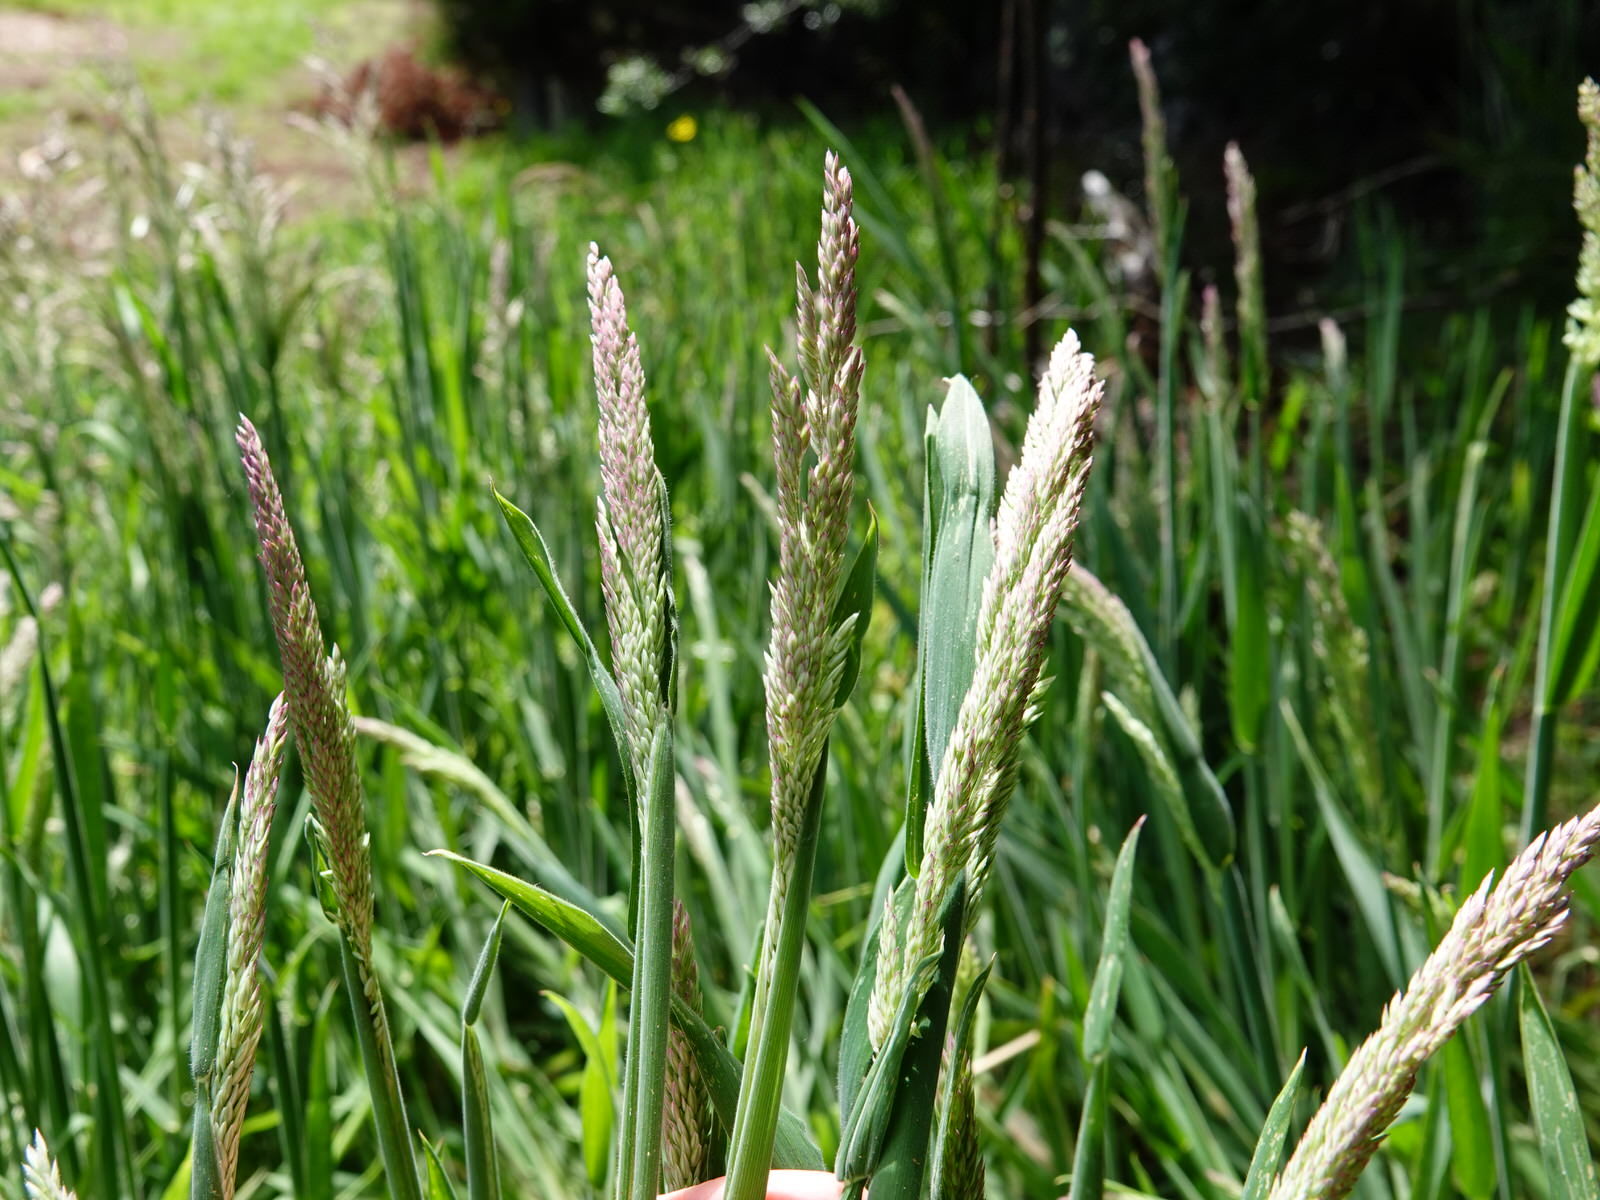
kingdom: Plantae
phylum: Tracheophyta
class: Liliopsida
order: Poales
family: Poaceae
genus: Holcus
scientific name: Holcus lanatus
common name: Yorkshire-fog
